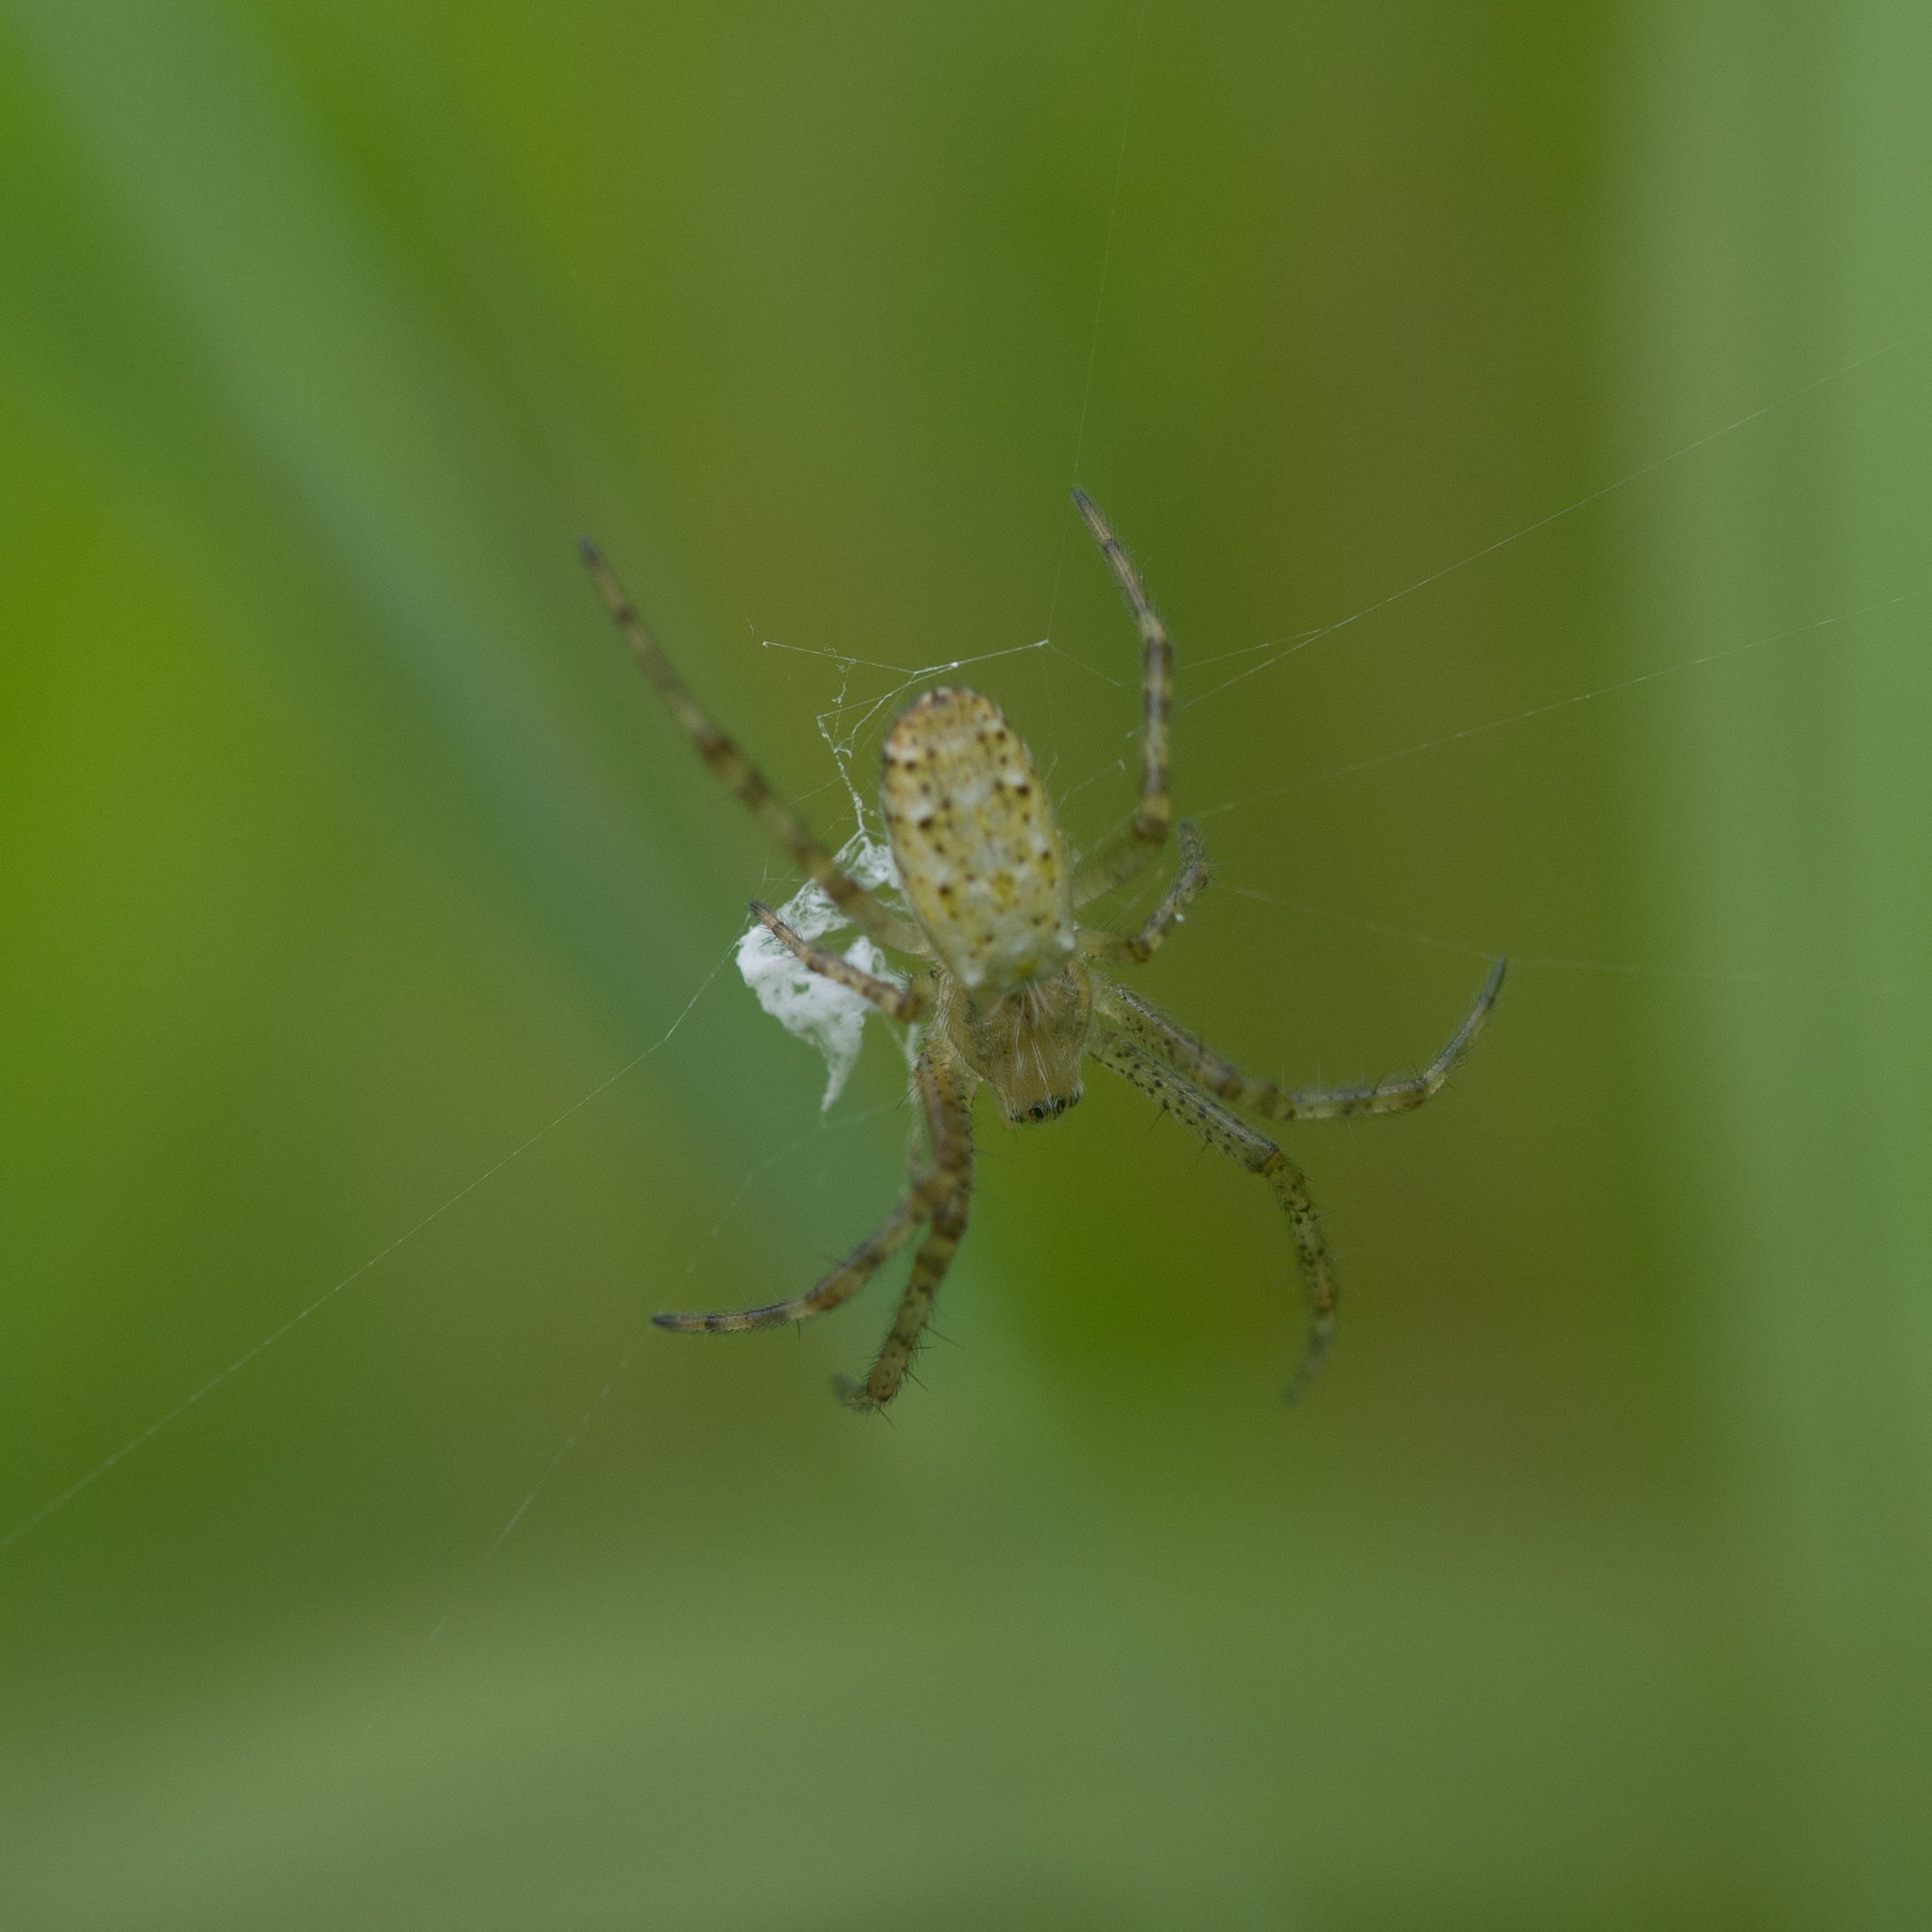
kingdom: Animalia
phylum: Arthropoda
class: Arachnida
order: Araneae
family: Araneidae
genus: Argiope
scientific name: Argiope bruennichi
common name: Wasp spider
